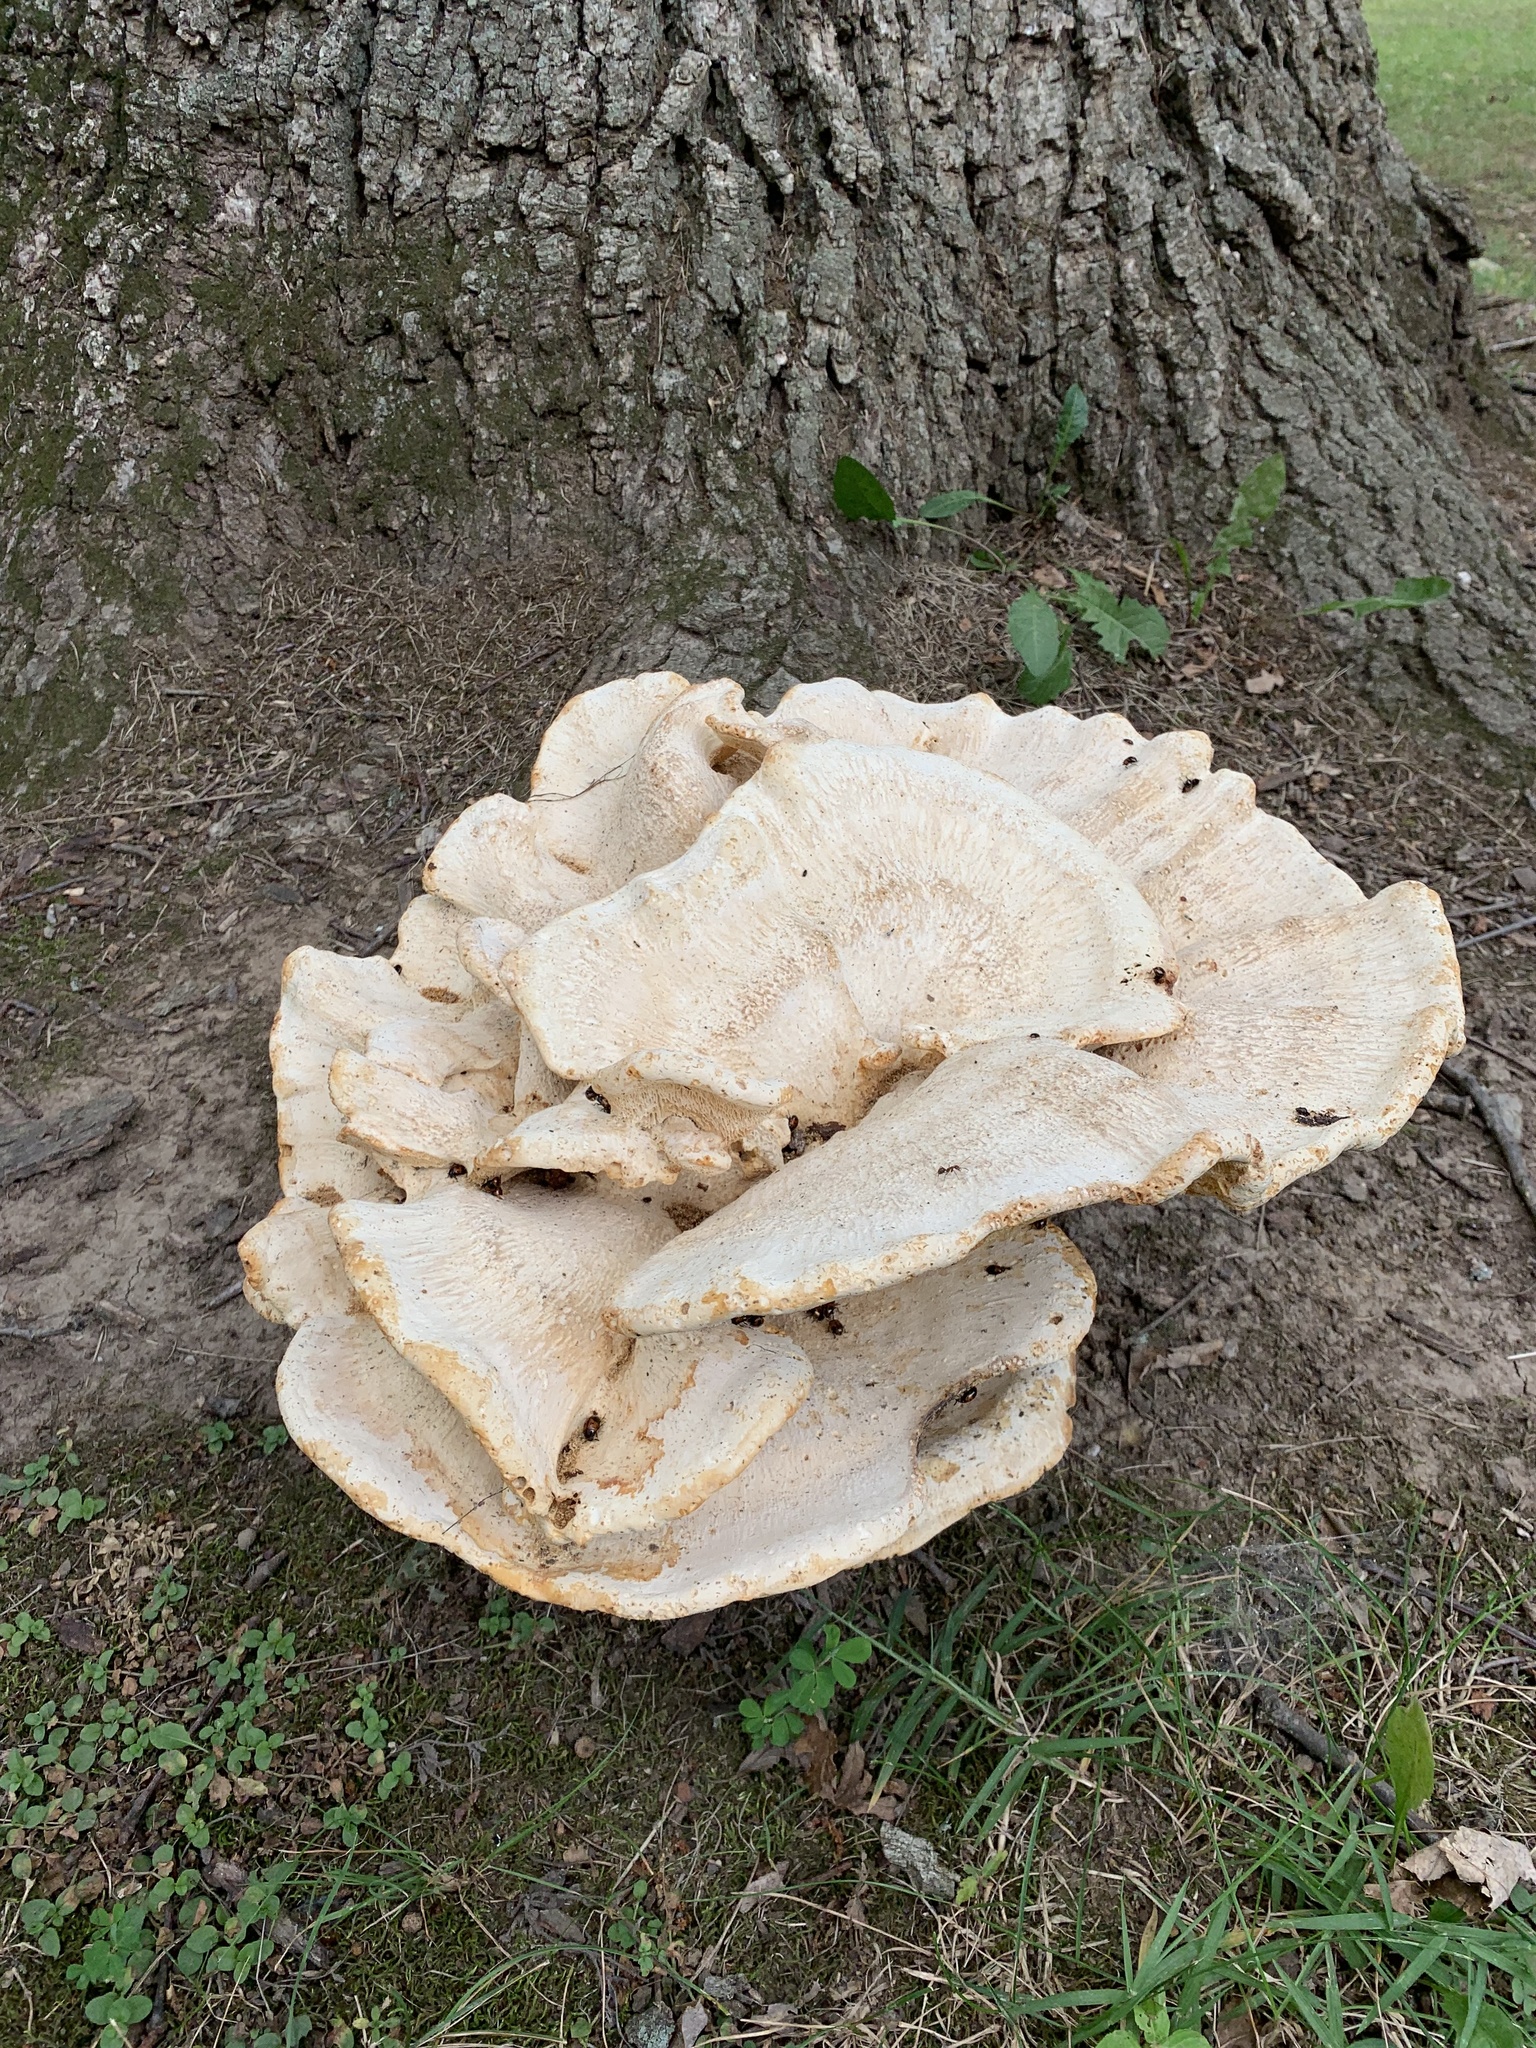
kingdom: Fungi
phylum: Basidiomycota
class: Agaricomycetes
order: Russulales
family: Bondarzewiaceae
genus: Bondarzewia
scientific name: Bondarzewia berkeleyi
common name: Berkeley's polypore
